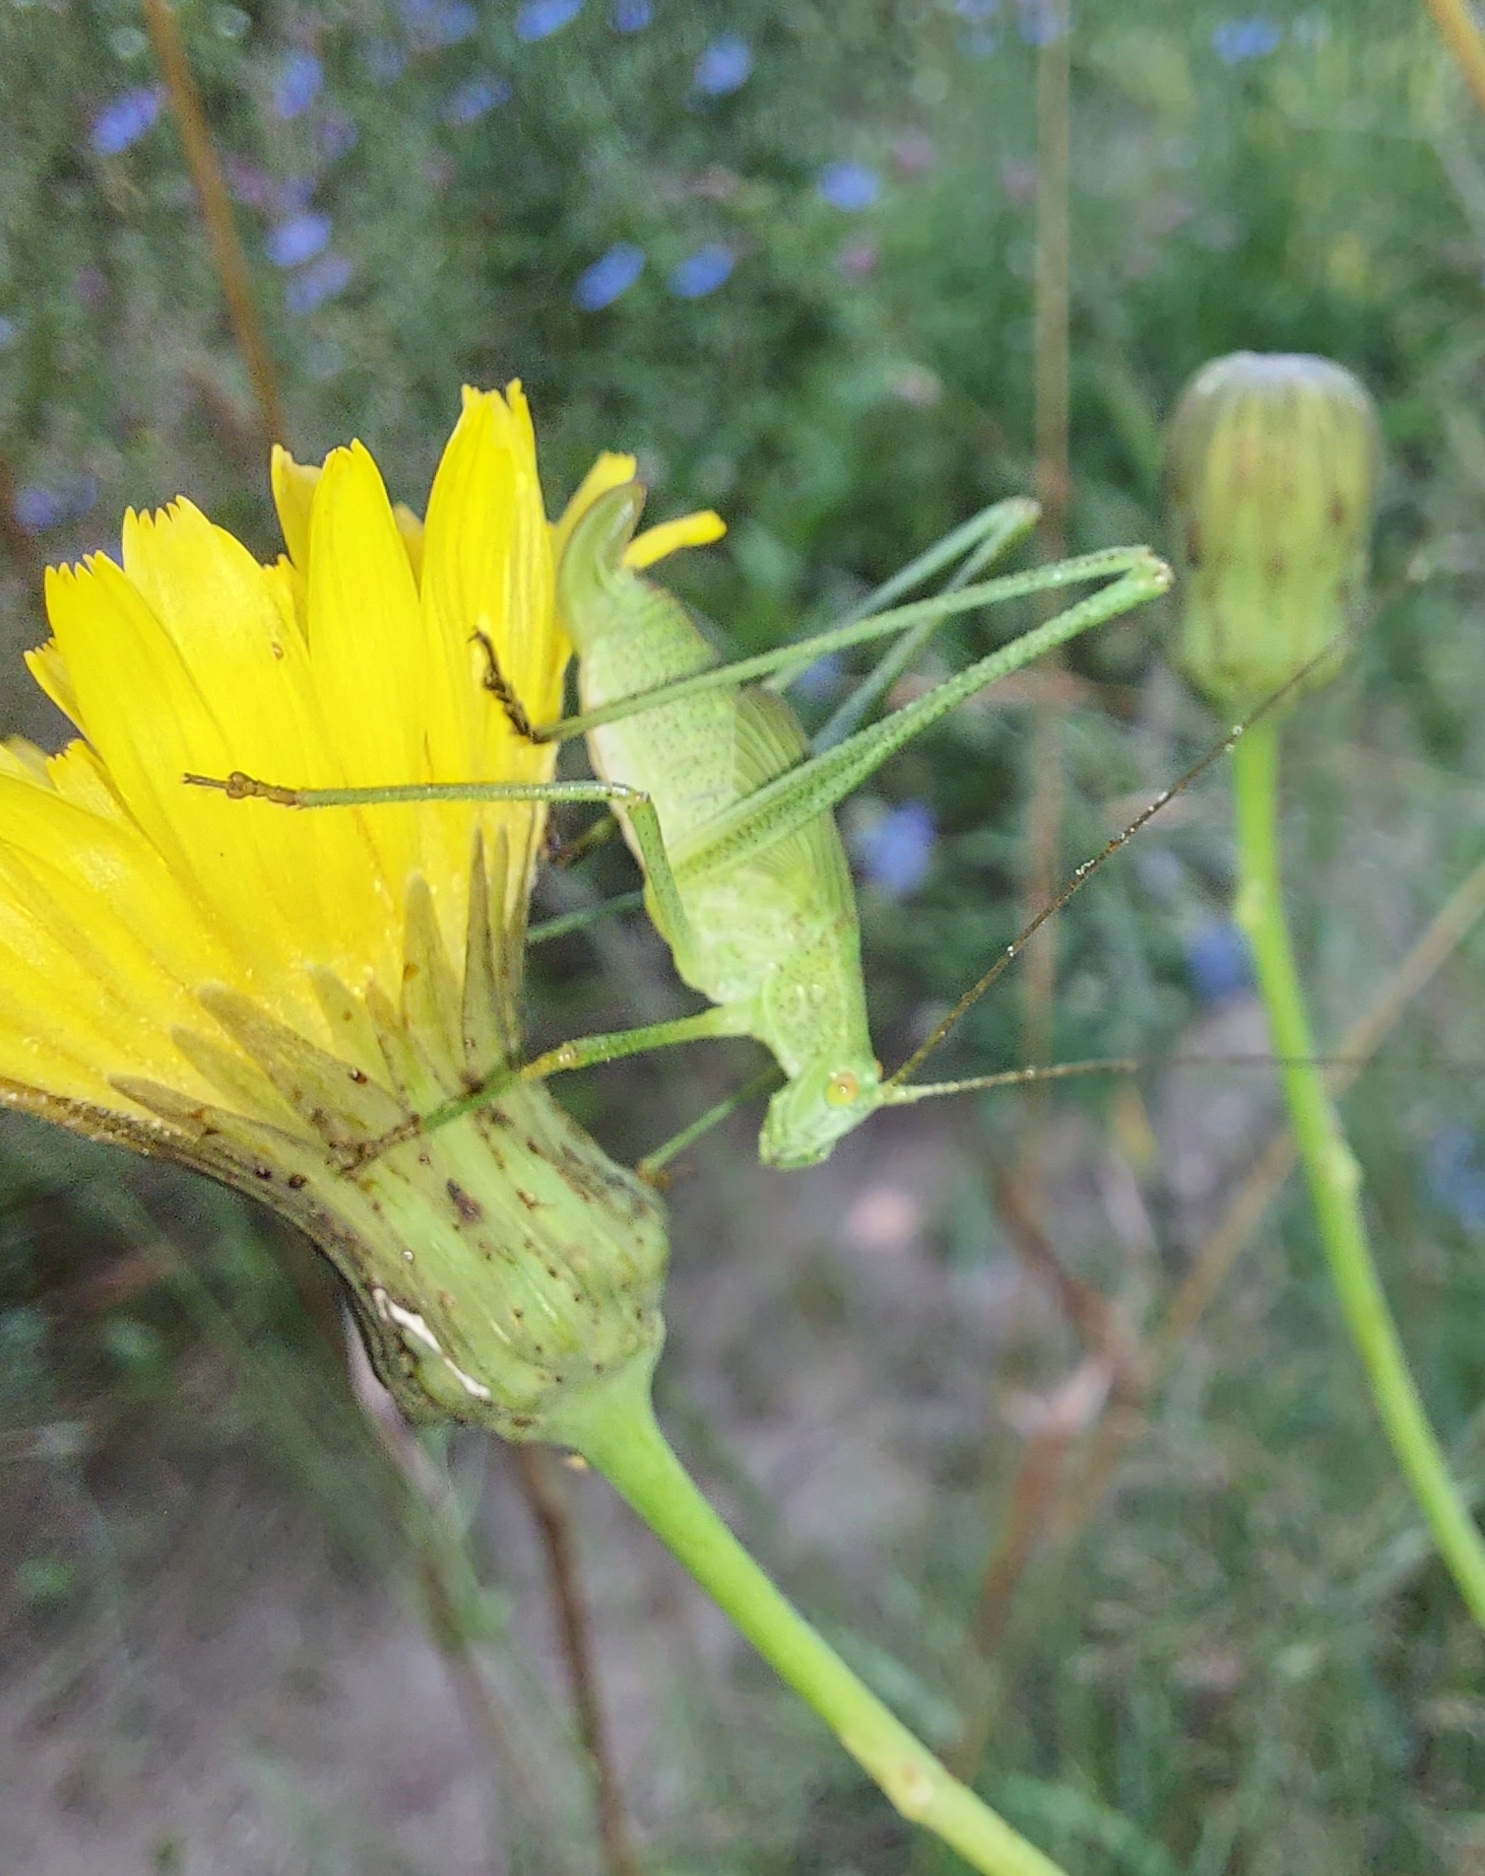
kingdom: Animalia
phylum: Arthropoda
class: Insecta
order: Orthoptera
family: Tettigoniidae
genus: Phaneroptera
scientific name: Phaneroptera falcata
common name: Sickle-bearing bush-cricket
